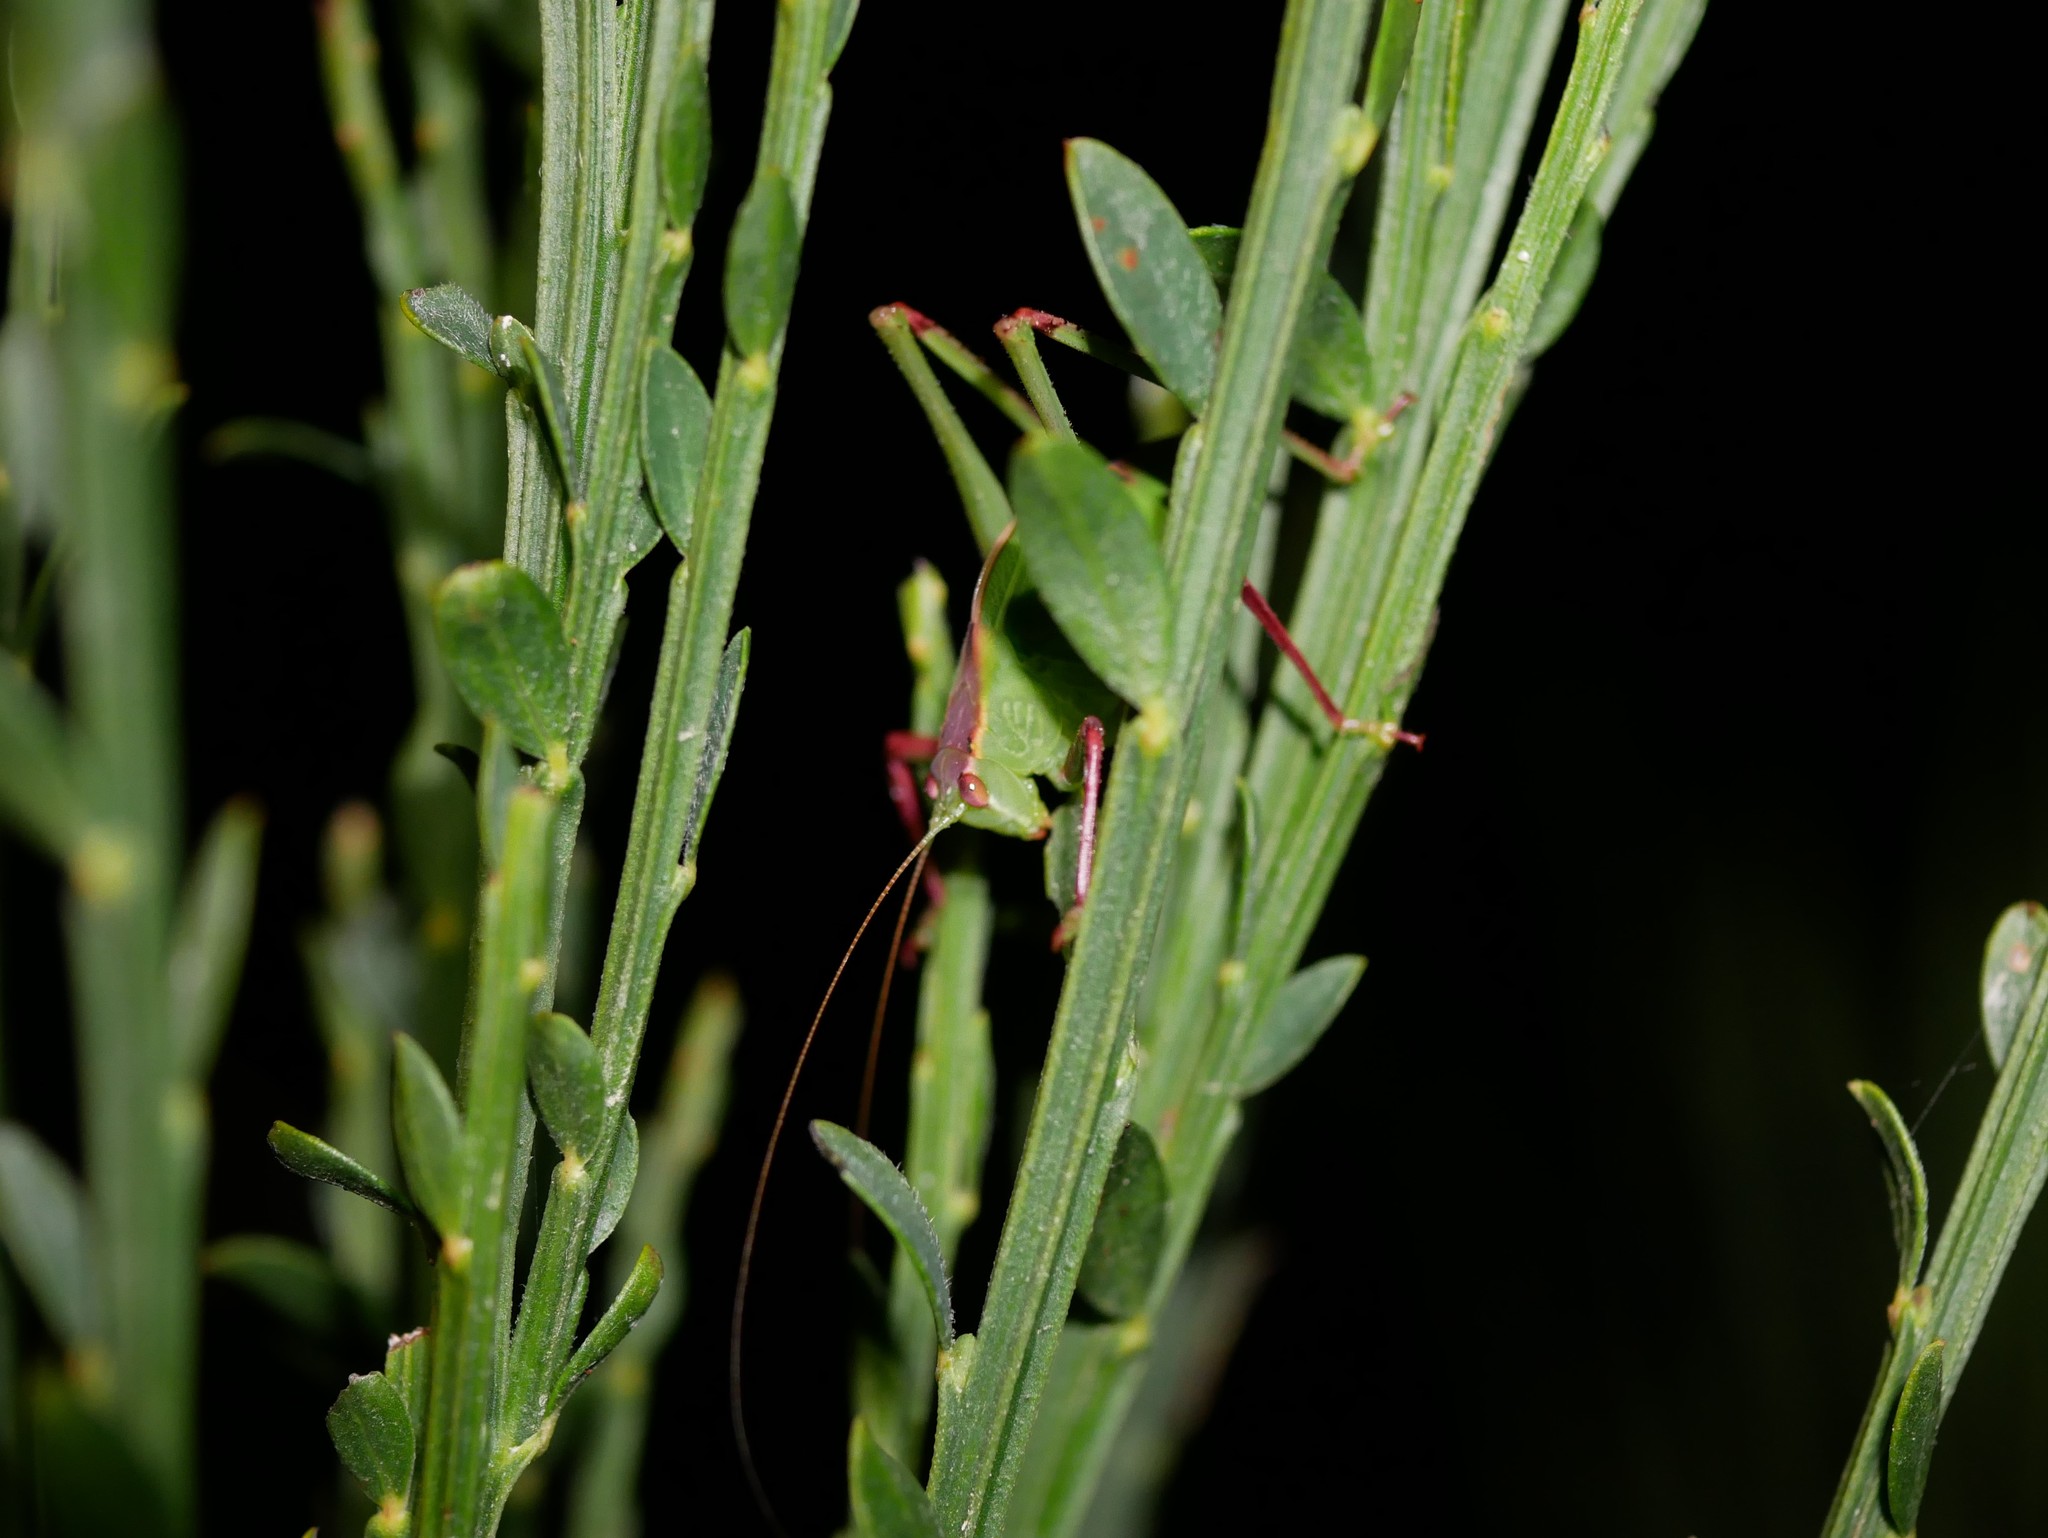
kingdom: Animalia
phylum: Arthropoda
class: Insecta
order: Orthoptera
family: Tettigoniidae
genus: Caedicia
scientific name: Caedicia simplex
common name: Common garden katydid
